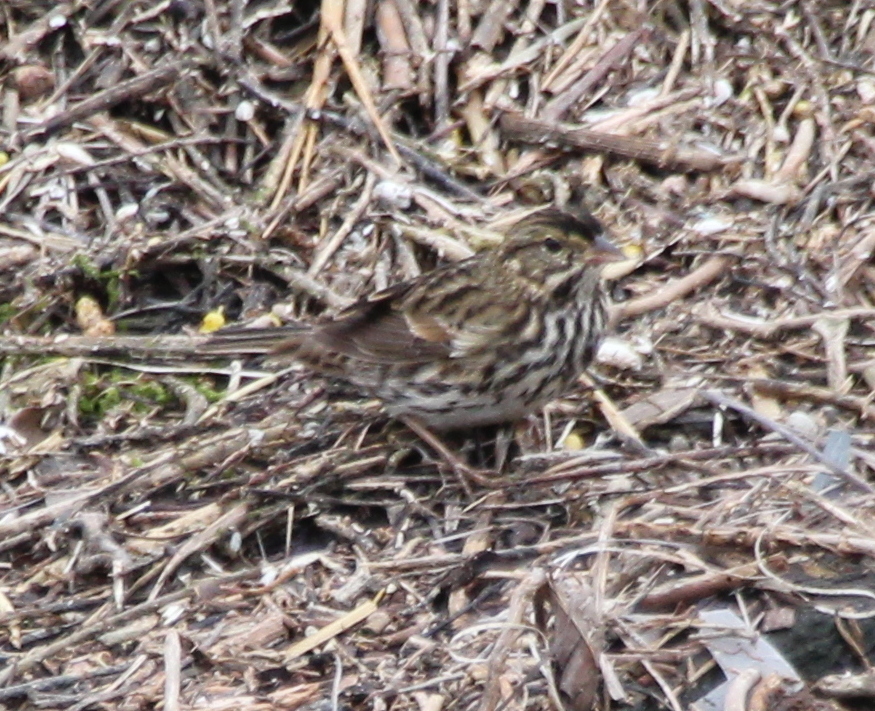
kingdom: Animalia
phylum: Chordata
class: Aves
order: Passeriformes
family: Passerellidae
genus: Passerculus
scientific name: Passerculus sandwichensis
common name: Savannah sparrow
